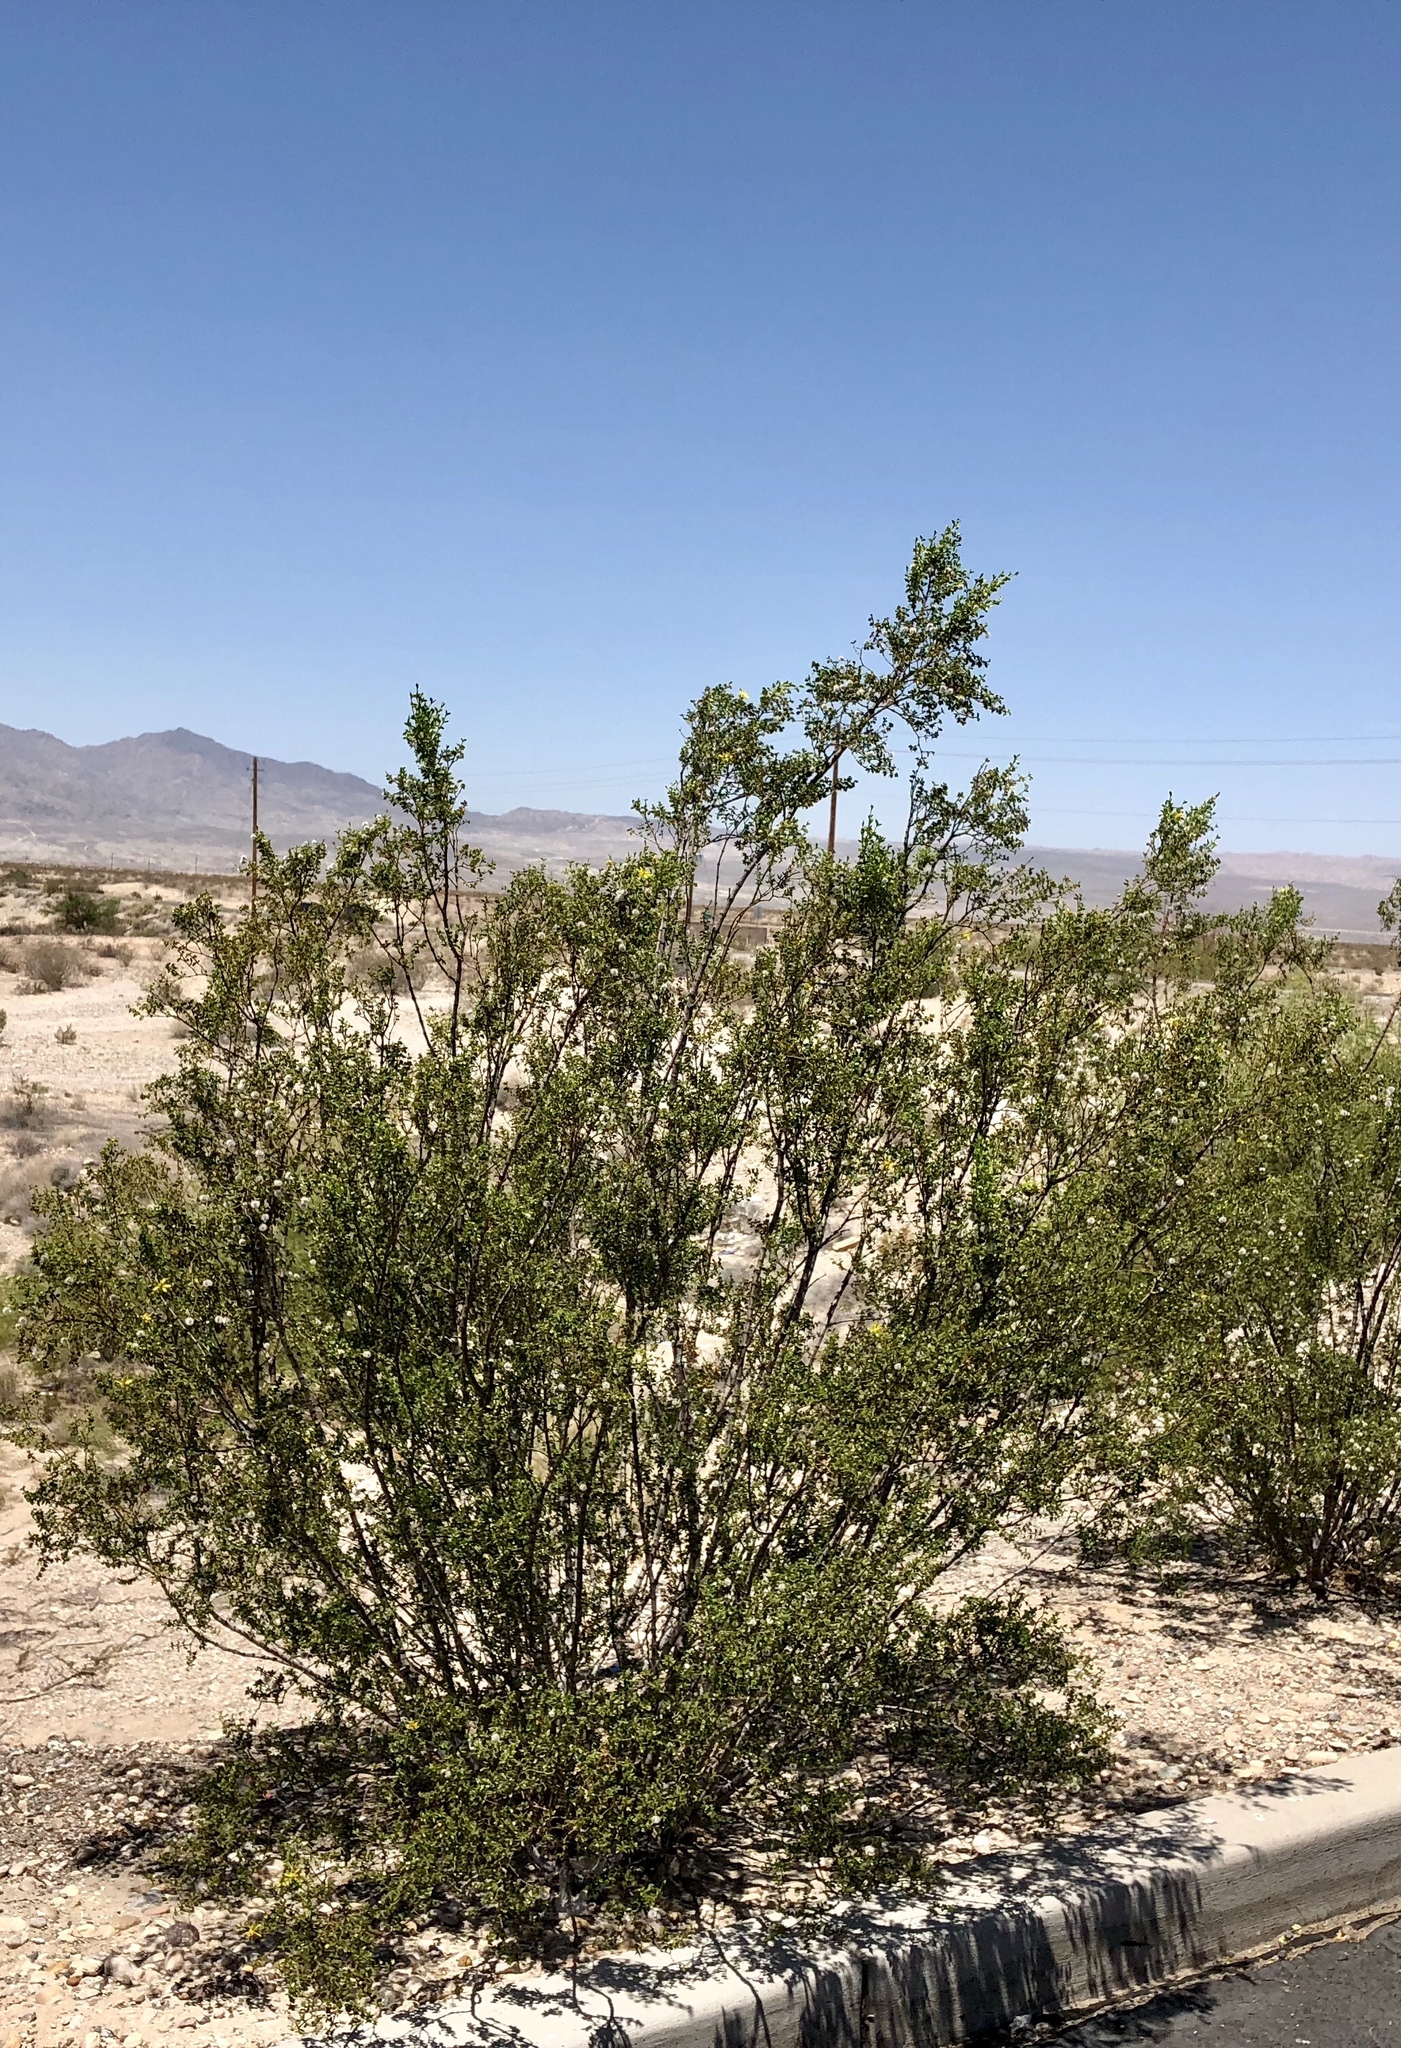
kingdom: Plantae
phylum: Tracheophyta
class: Magnoliopsida
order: Zygophyllales
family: Zygophyllaceae
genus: Larrea
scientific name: Larrea tridentata
